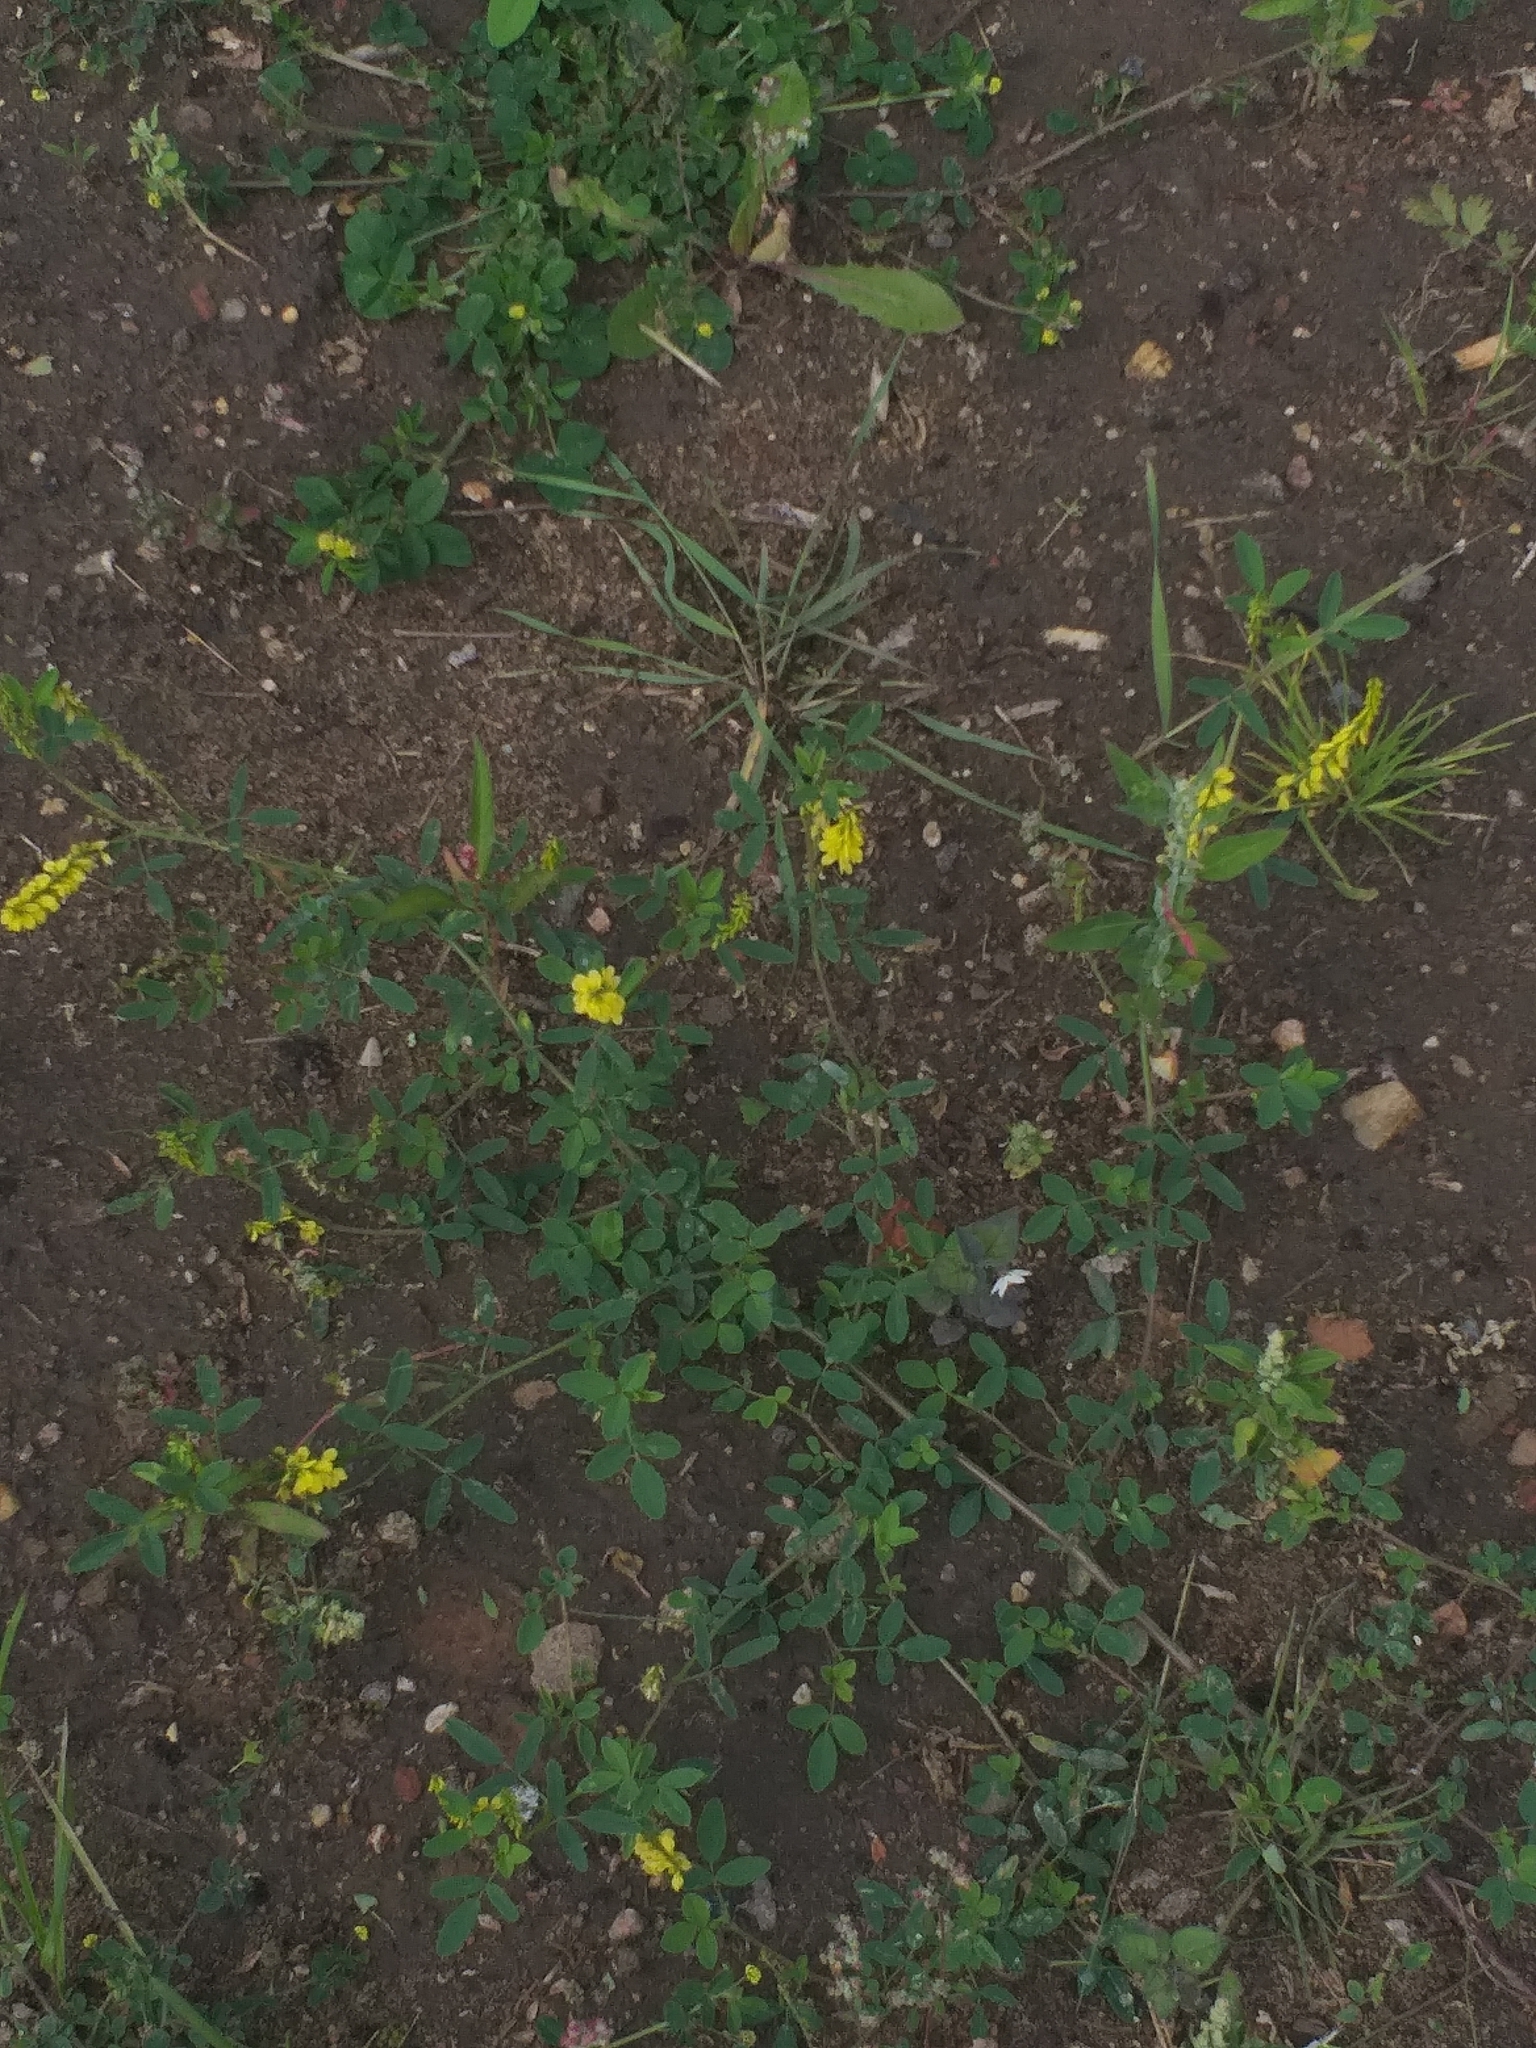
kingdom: Plantae
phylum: Tracheophyta
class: Magnoliopsida
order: Fabales
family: Fabaceae
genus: Melilotus
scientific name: Melilotus officinalis
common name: Sweetclover
